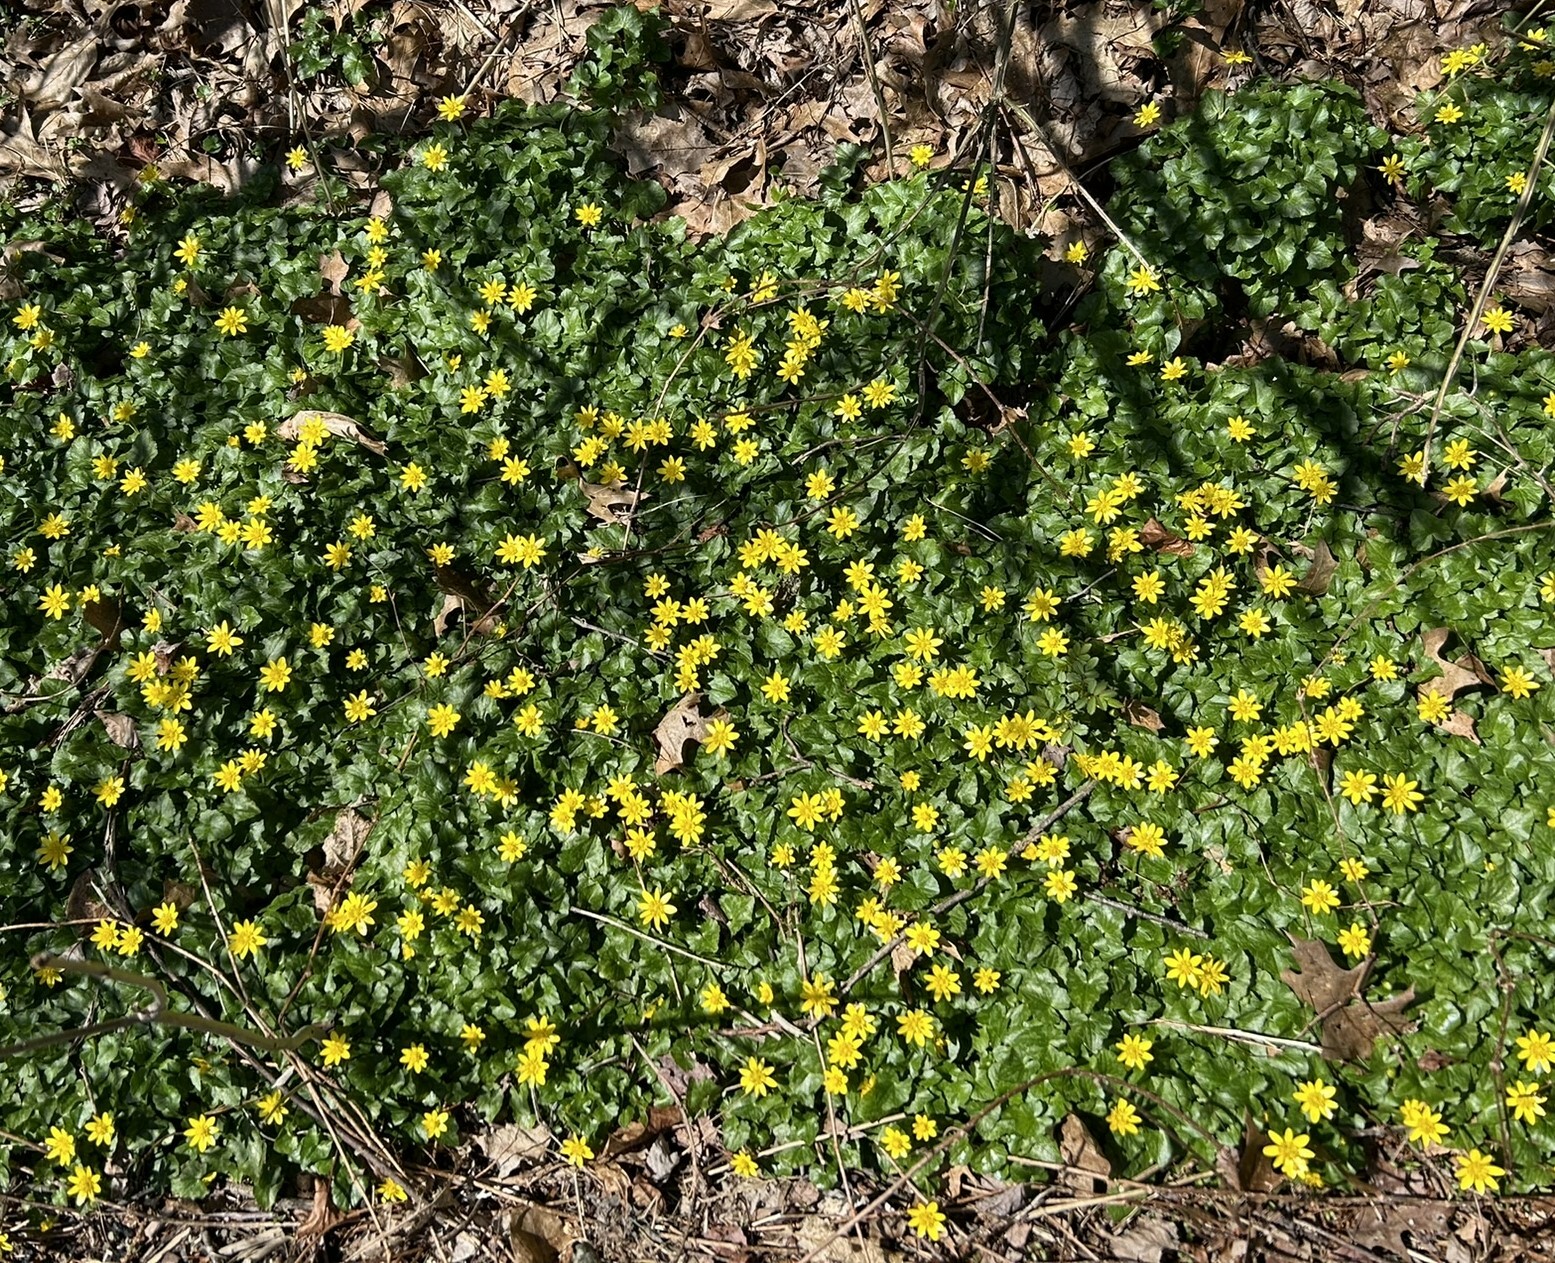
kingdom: Plantae
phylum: Tracheophyta
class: Magnoliopsida
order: Ranunculales
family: Ranunculaceae
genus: Ficaria
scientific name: Ficaria verna
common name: Lesser celandine
